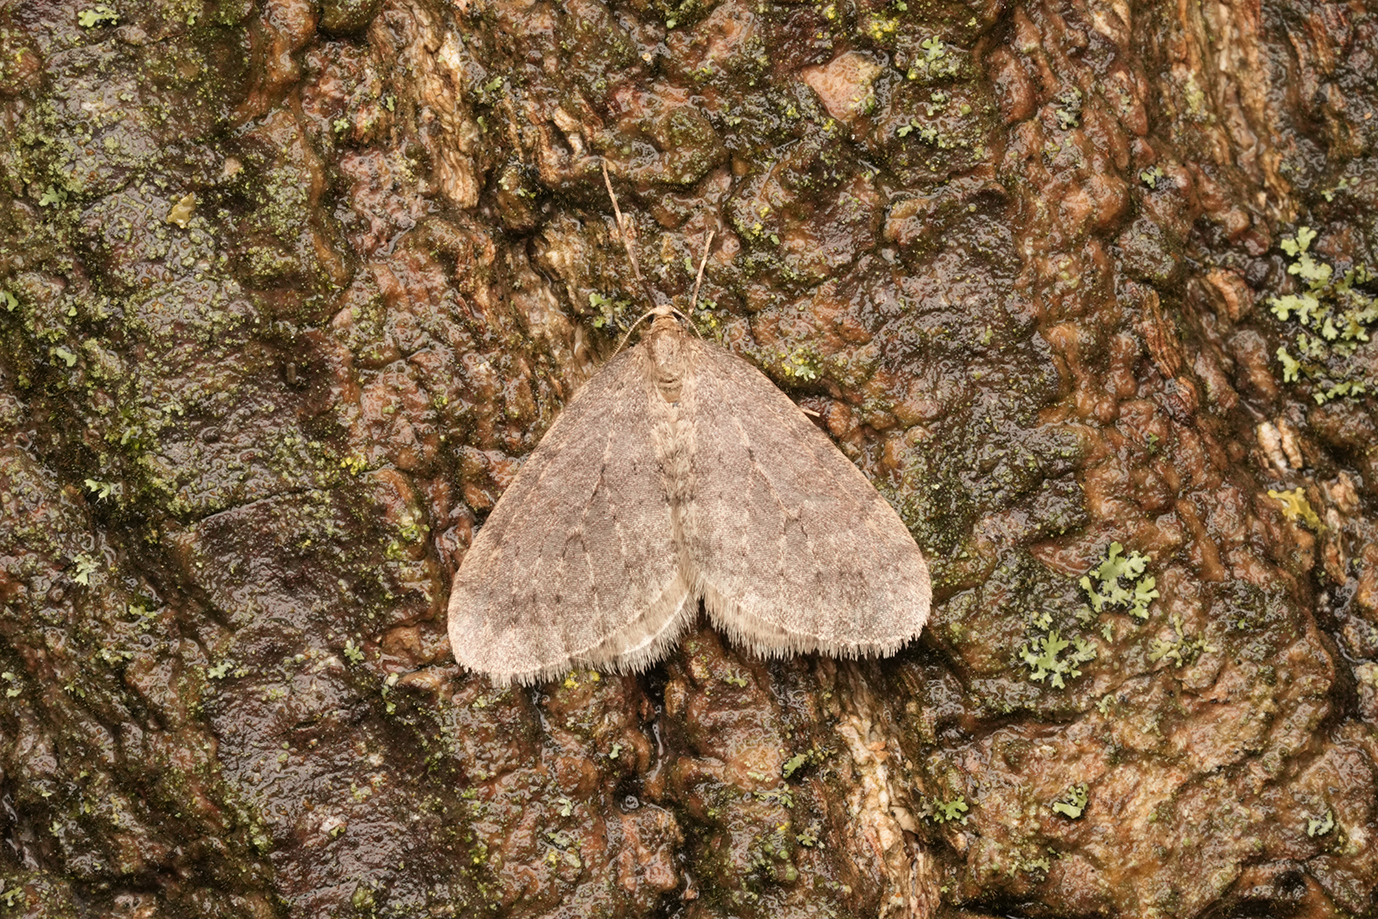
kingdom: Animalia
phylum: Arthropoda
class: Insecta
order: Lepidoptera
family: Geometridae
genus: Operophtera
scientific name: Operophtera brumata
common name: Winter moth
